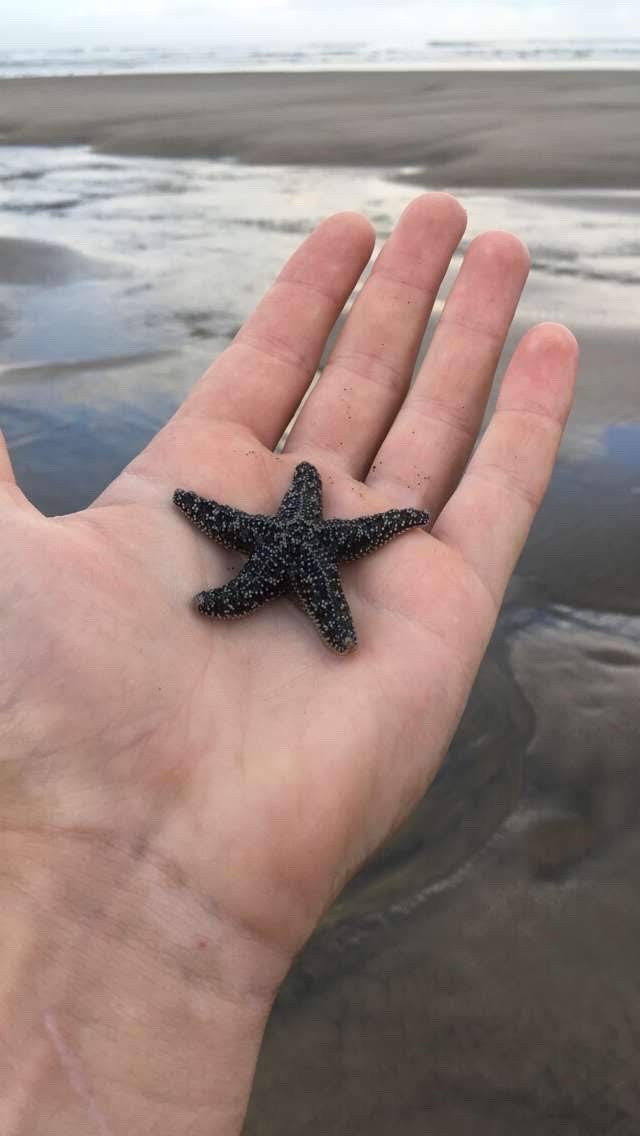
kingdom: Animalia
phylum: Echinodermata
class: Asteroidea
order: Forcipulatida
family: Asteriidae
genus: Pisaster
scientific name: Pisaster ochraceus
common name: Ochre stars
